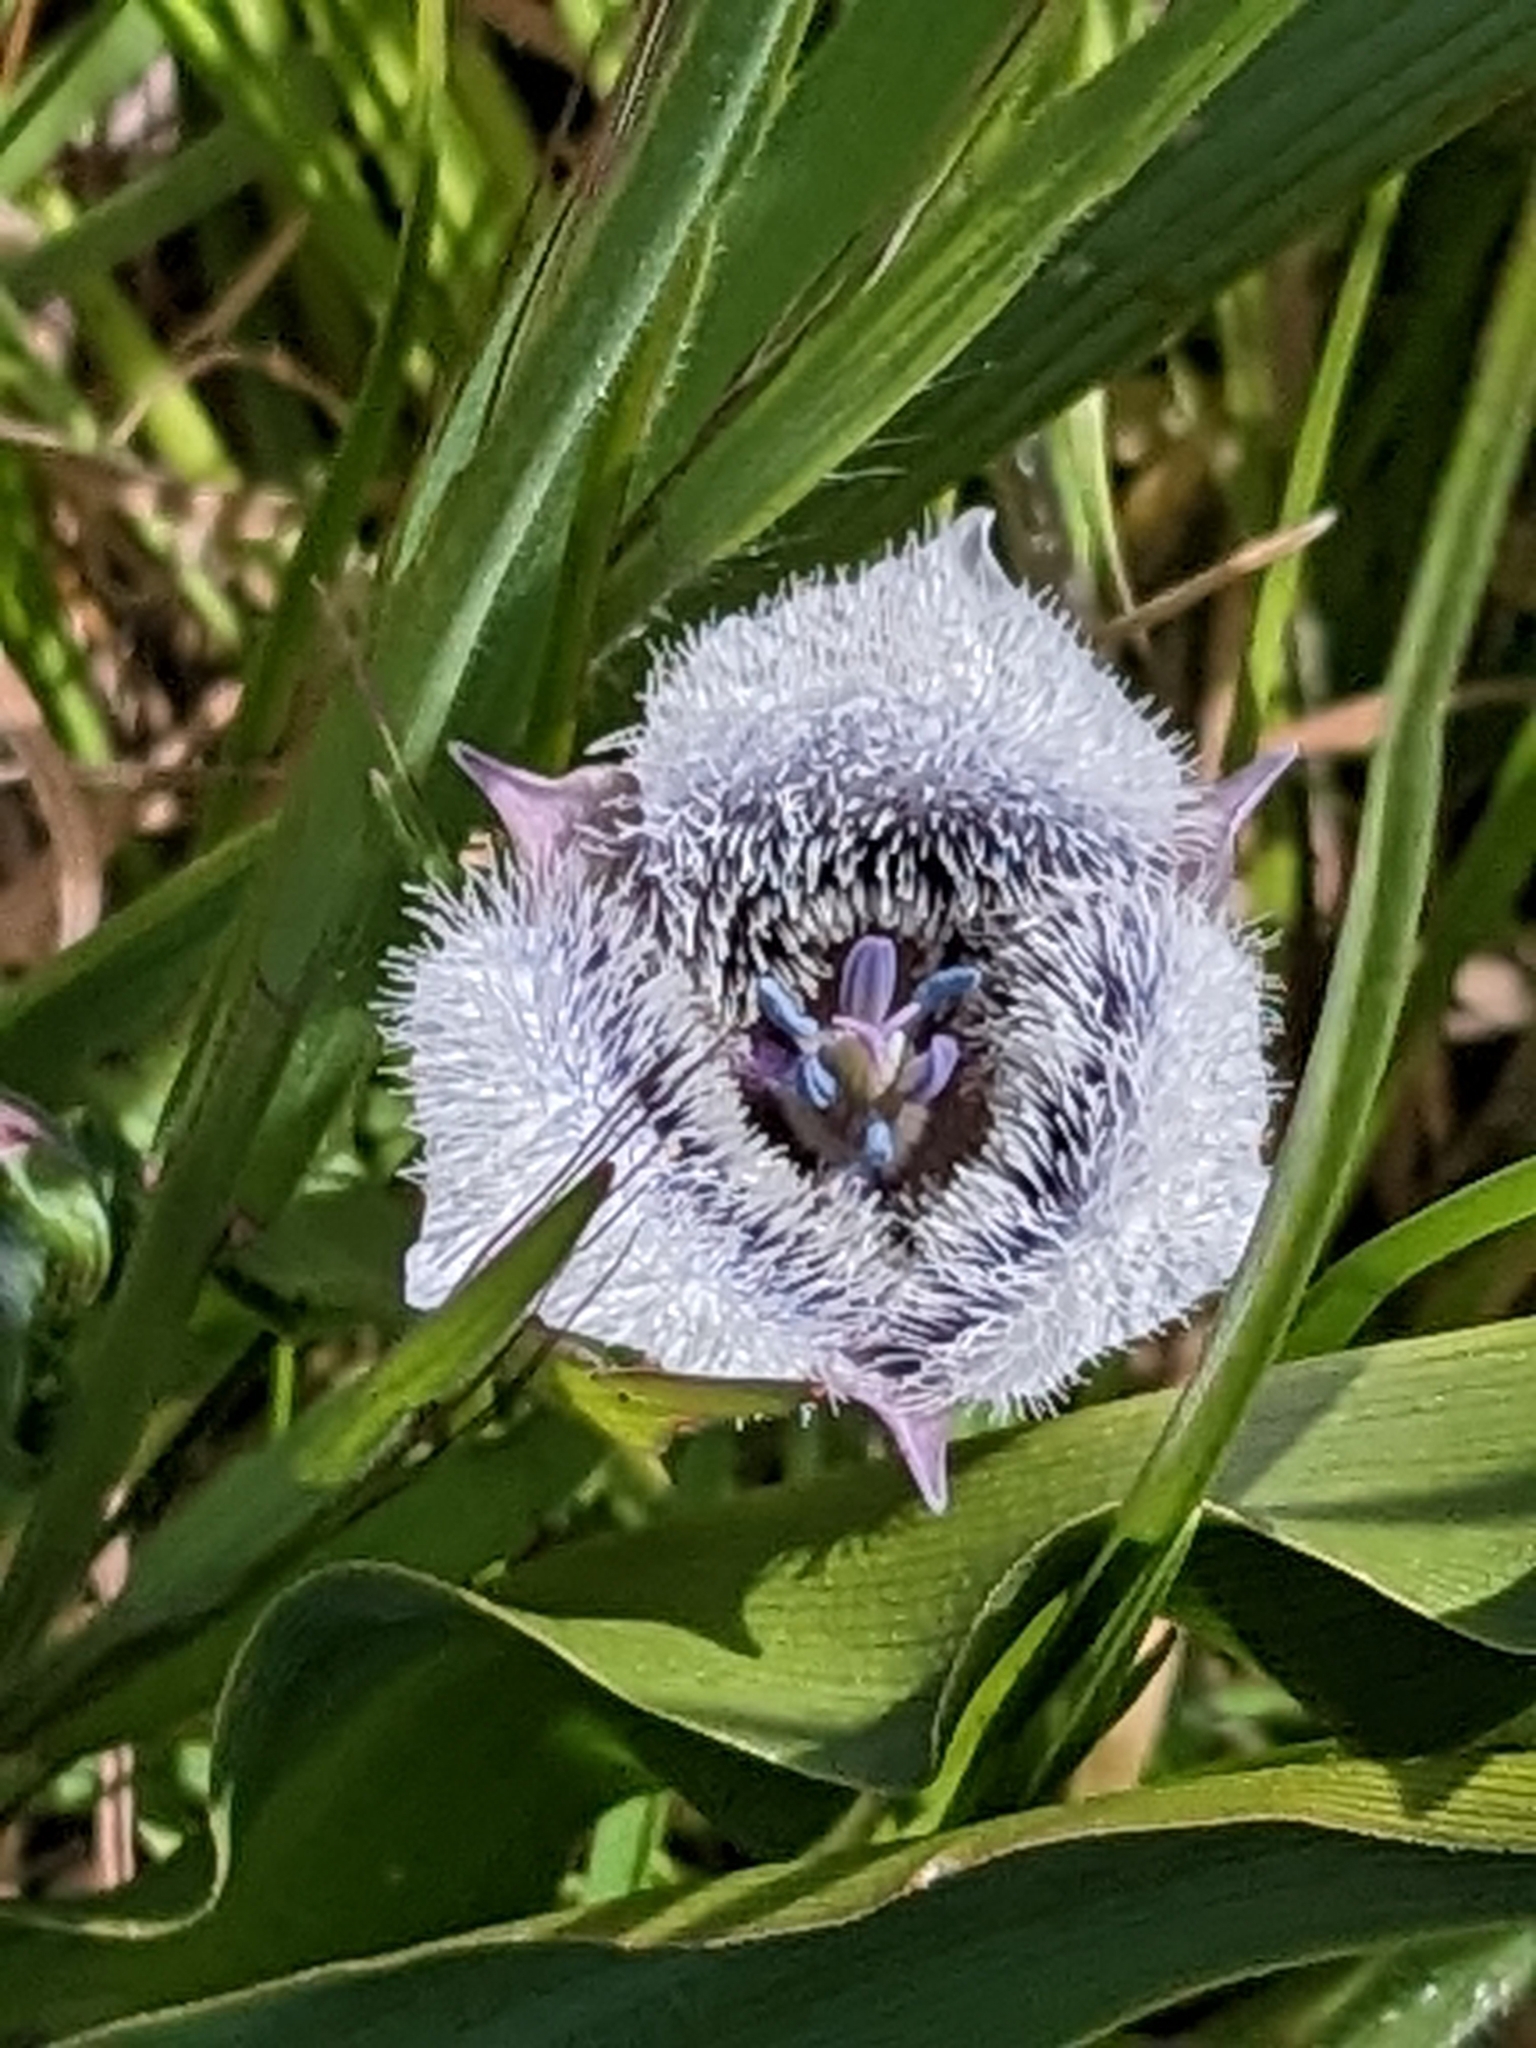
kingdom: Plantae
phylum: Tracheophyta
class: Liliopsida
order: Liliales
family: Liliaceae
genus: Calochortus
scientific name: Calochortus tolmiei
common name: Pussy-ears
